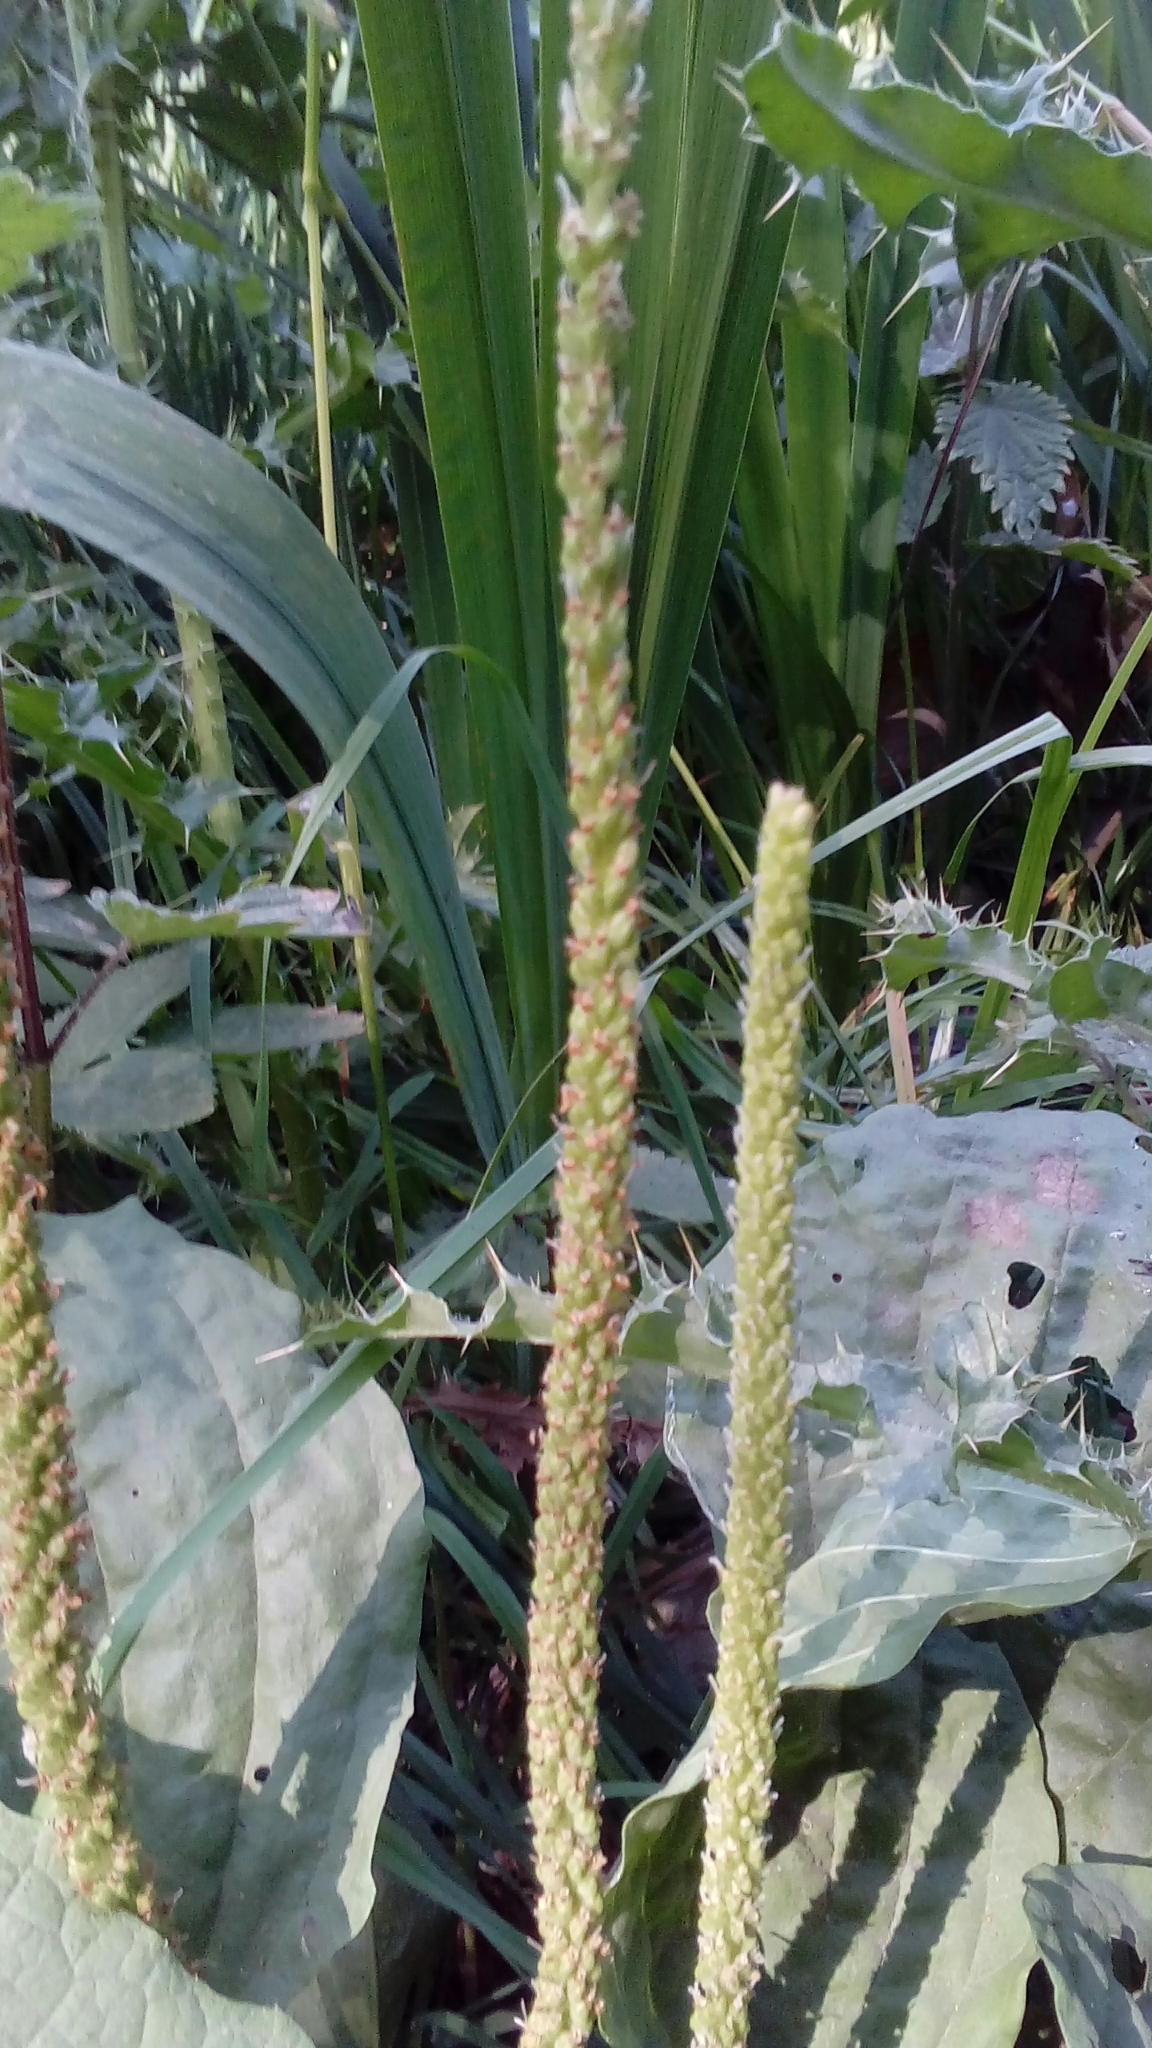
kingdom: Plantae
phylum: Tracheophyta
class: Magnoliopsida
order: Lamiales
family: Plantaginaceae
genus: Plantago
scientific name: Plantago major
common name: Common plantain
